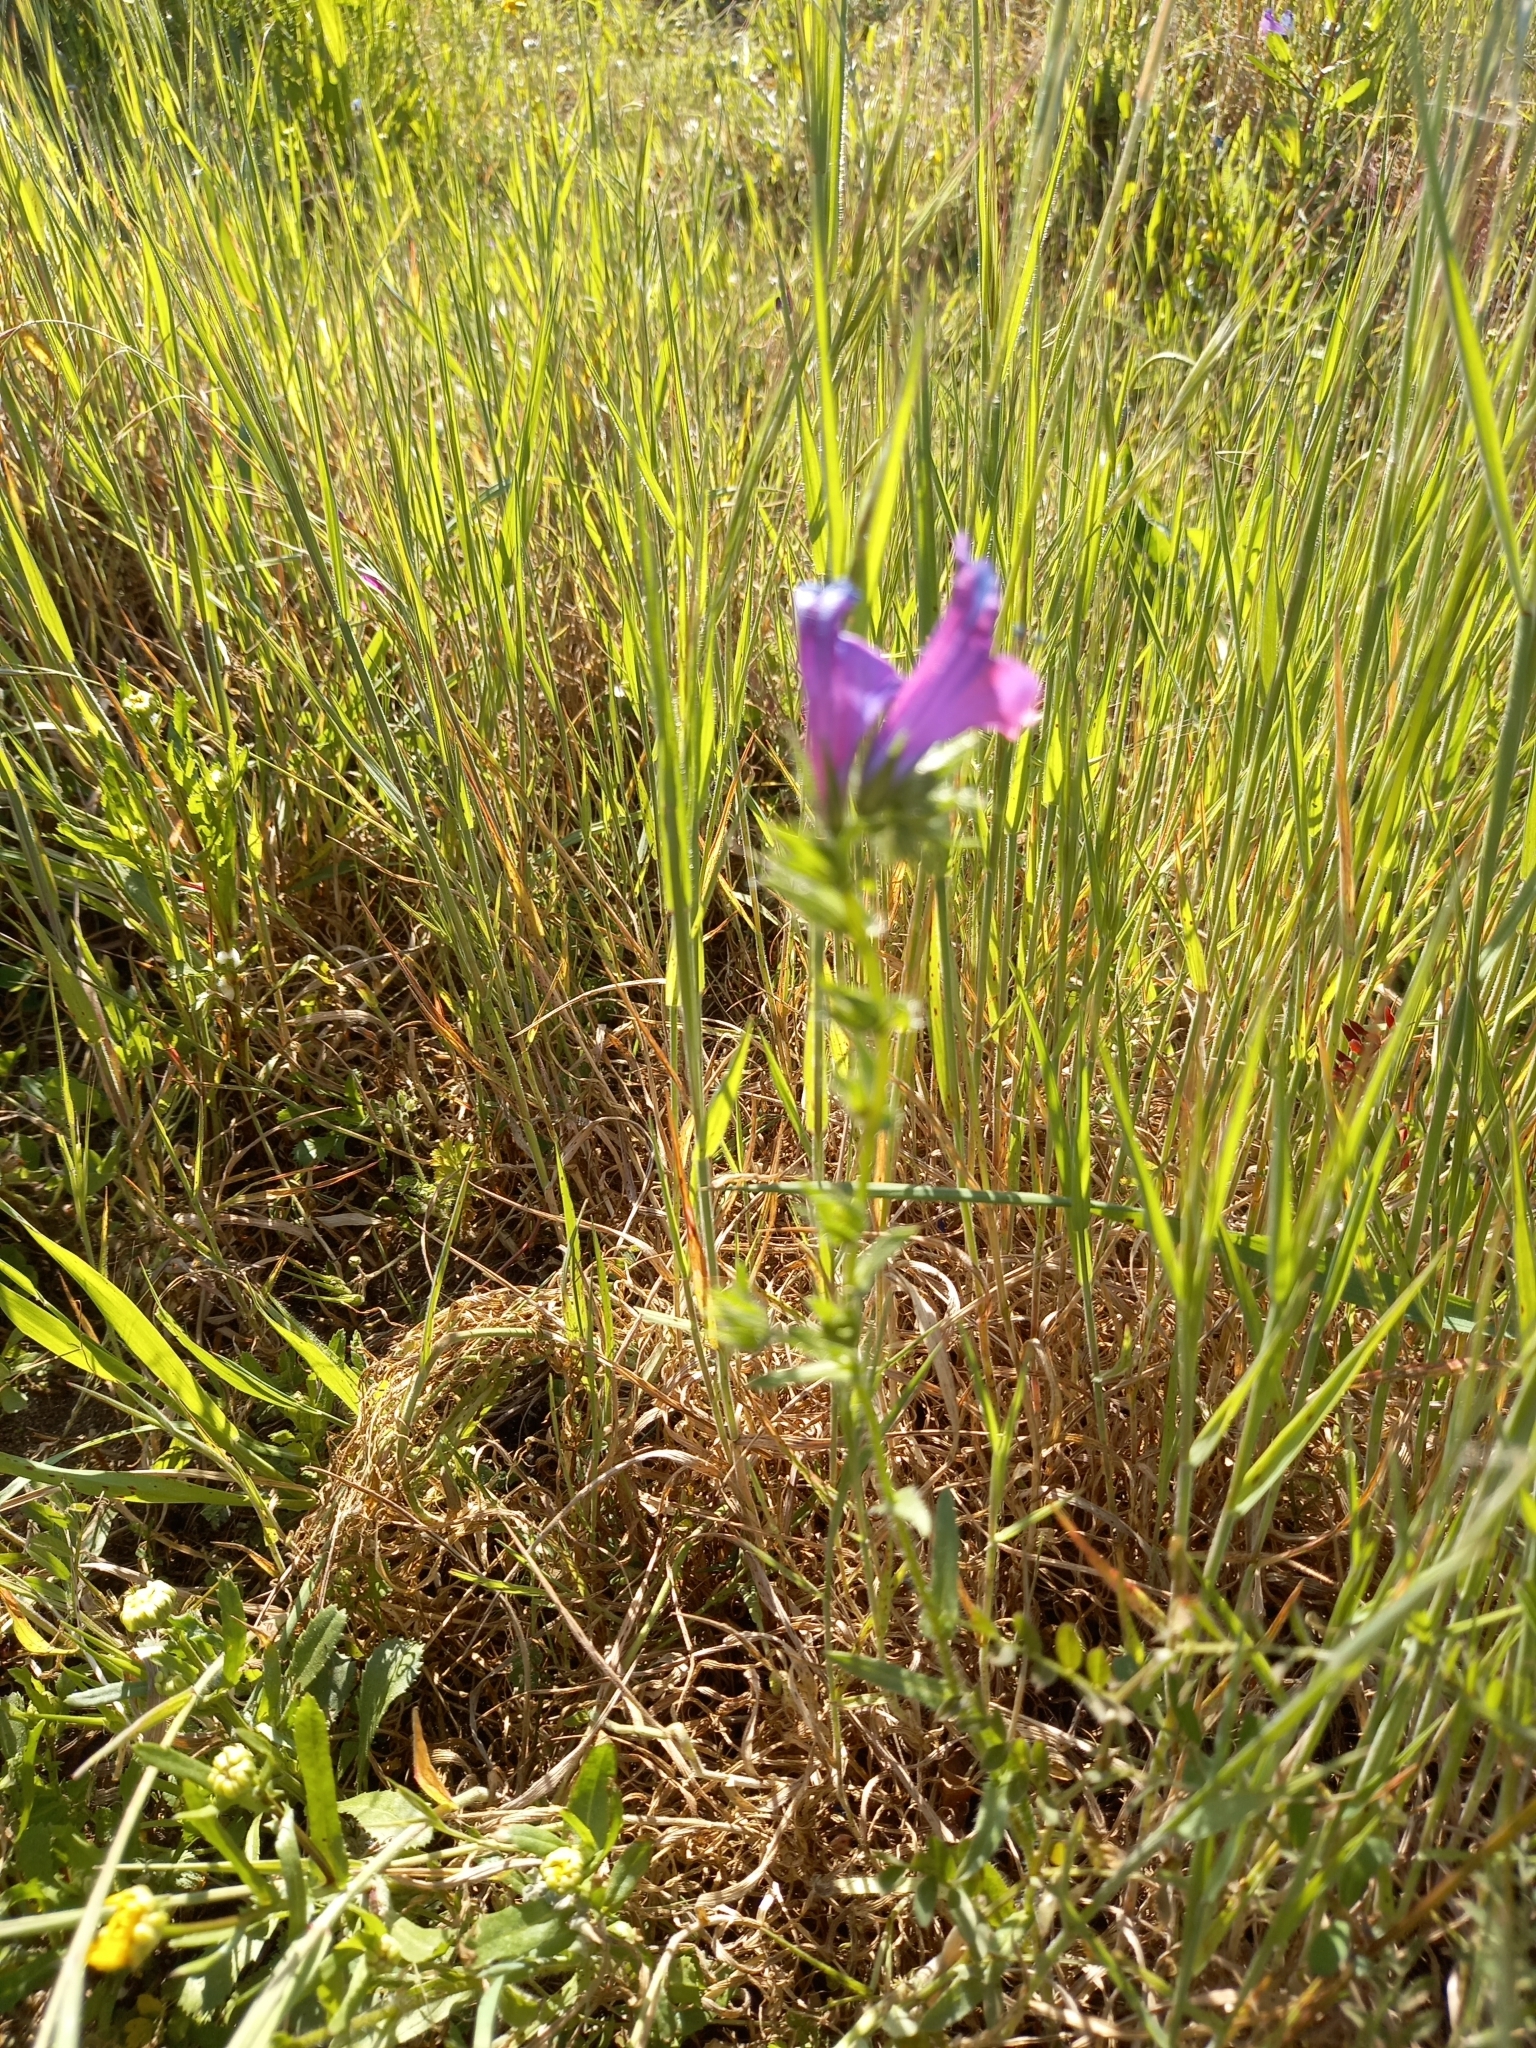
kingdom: Plantae
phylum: Tracheophyta
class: Magnoliopsida
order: Boraginales
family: Boraginaceae
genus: Echium
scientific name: Echium plantagineum
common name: Purple viper's-bugloss
